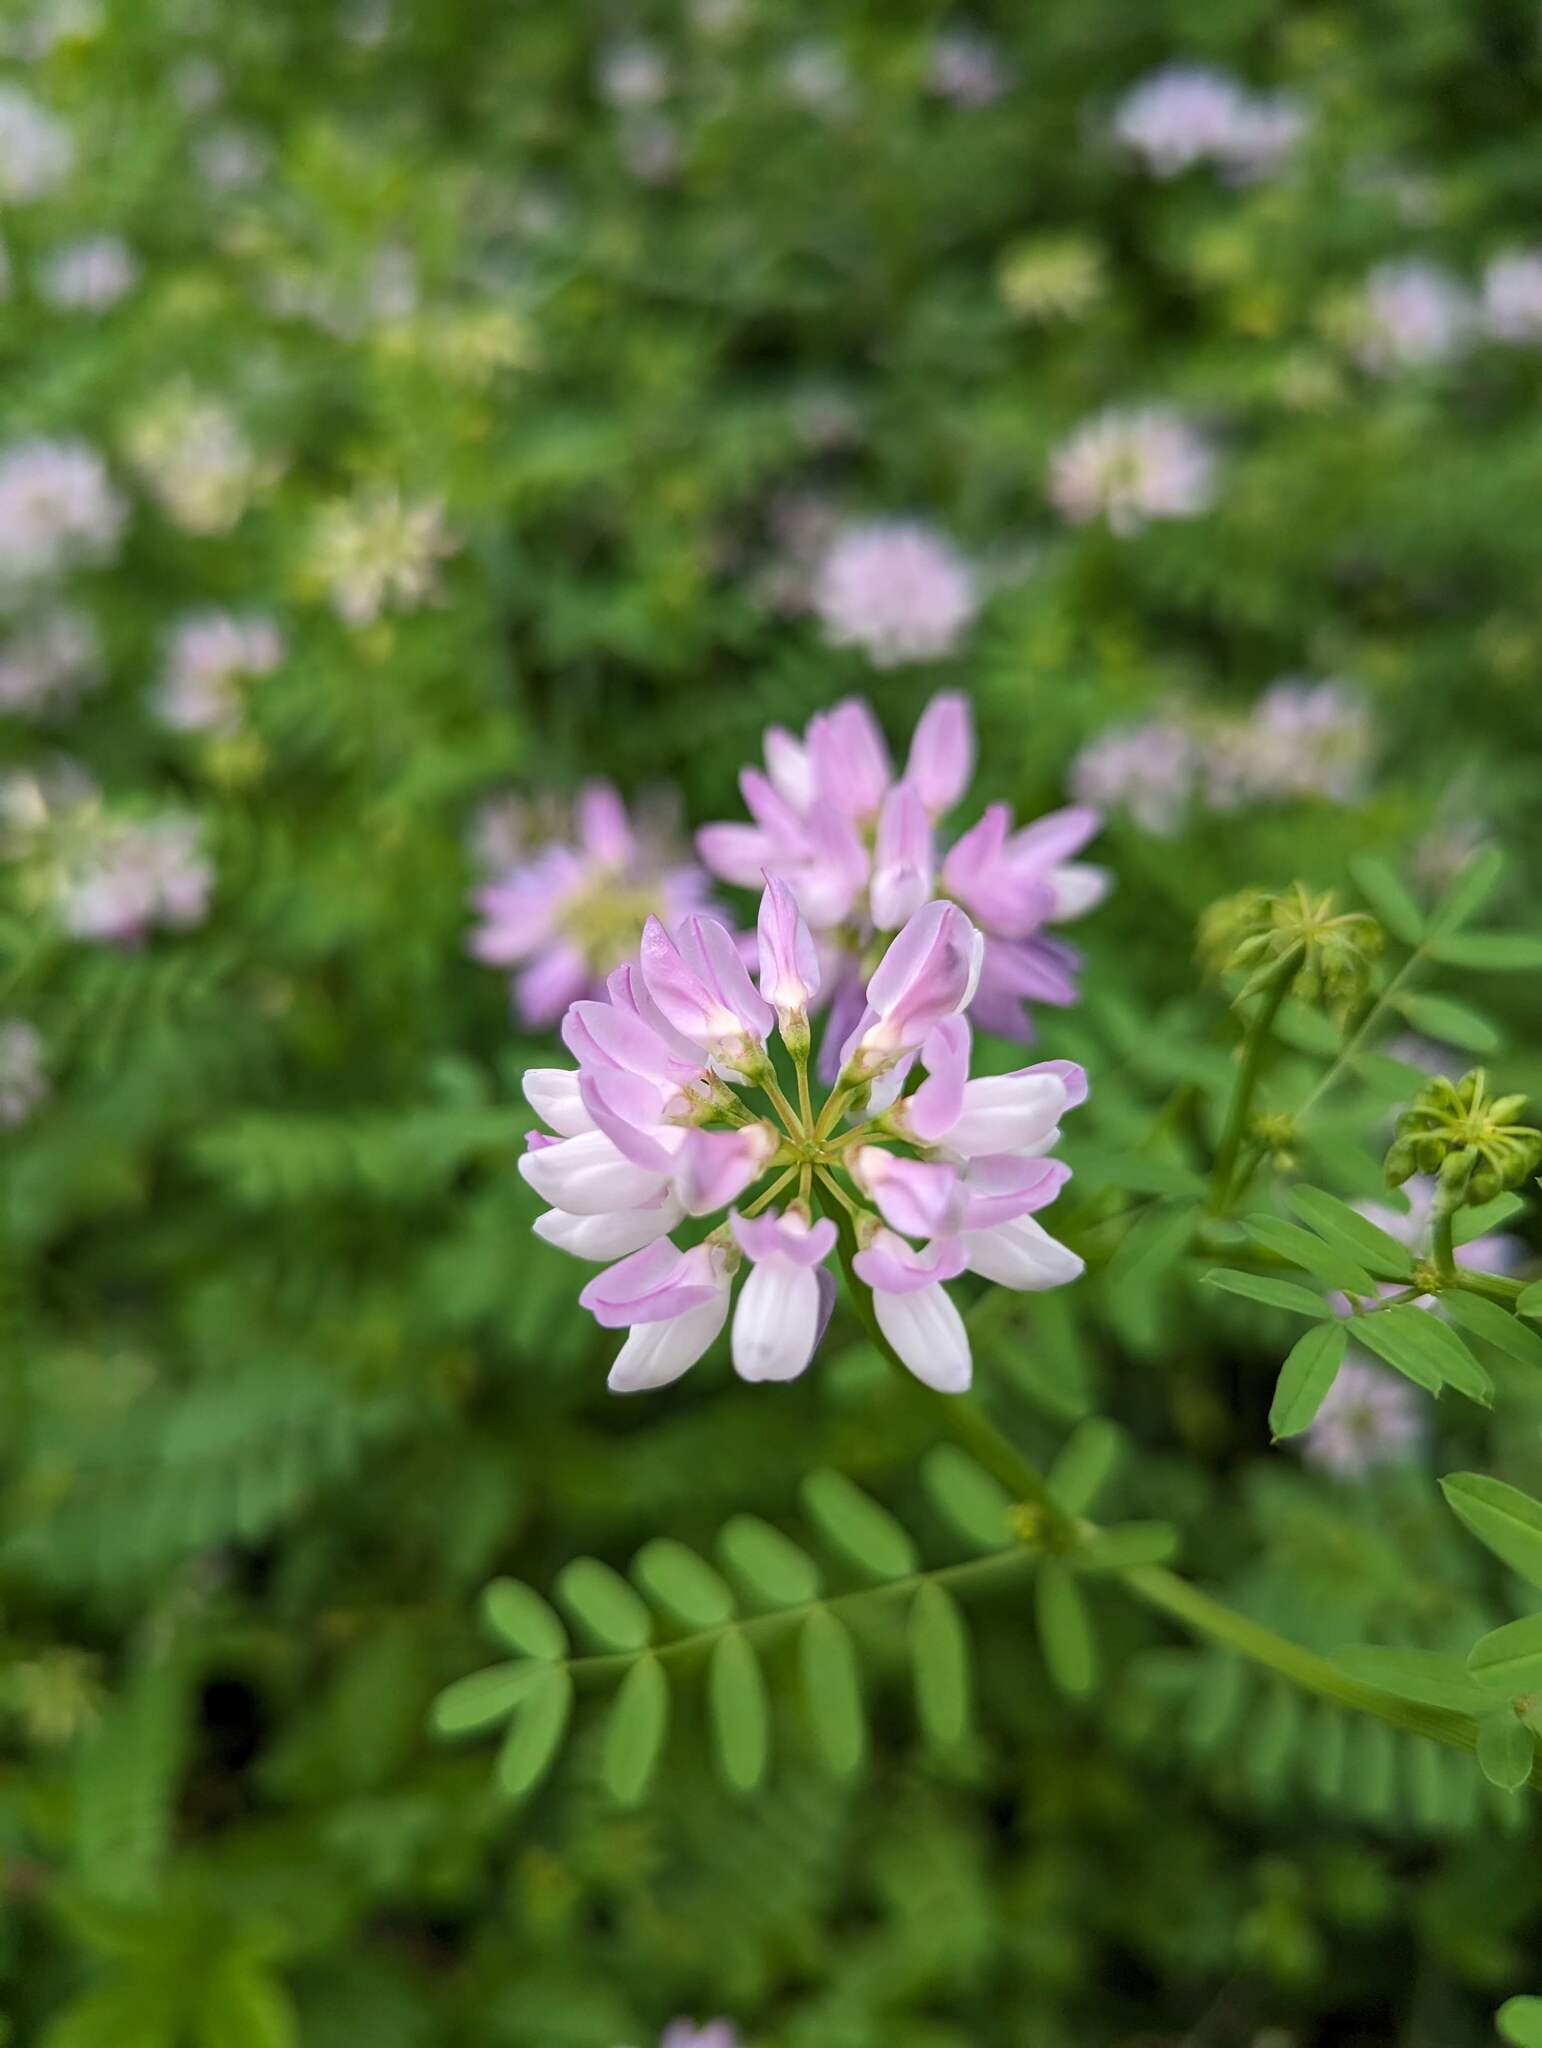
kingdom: Plantae
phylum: Tracheophyta
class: Magnoliopsida
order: Fabales
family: Fabaceae
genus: Coronilla
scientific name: Coronilla varia
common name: Crownvetch
